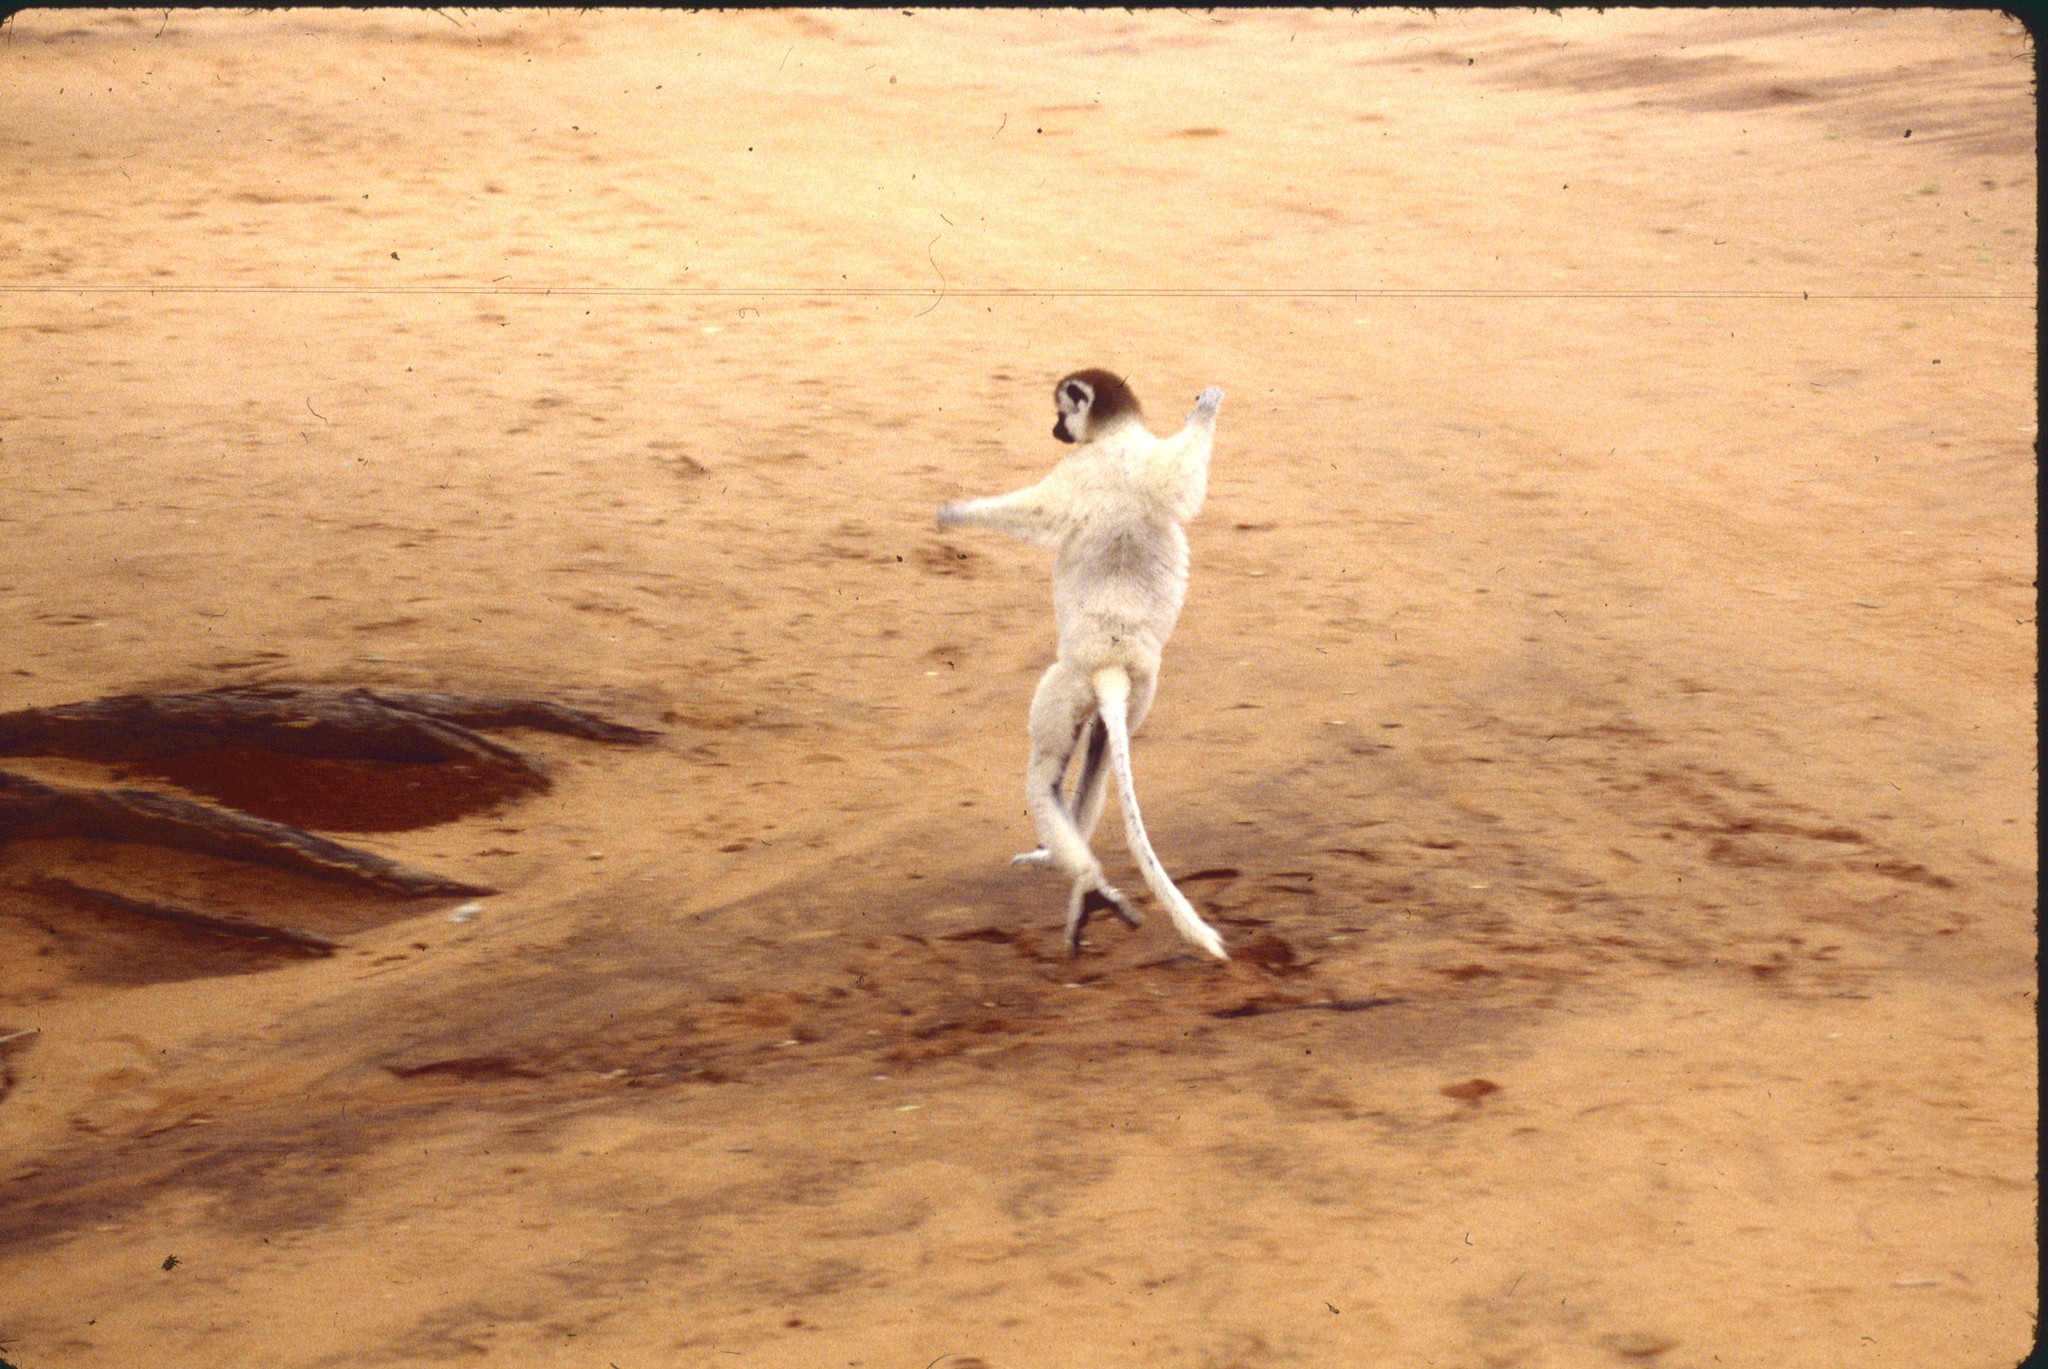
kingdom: Animalia
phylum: Chordata
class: Mammalia
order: Primates
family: Indriidae
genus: Propithecus
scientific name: Propithecus verreauxi
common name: Verreaux's sifaka
